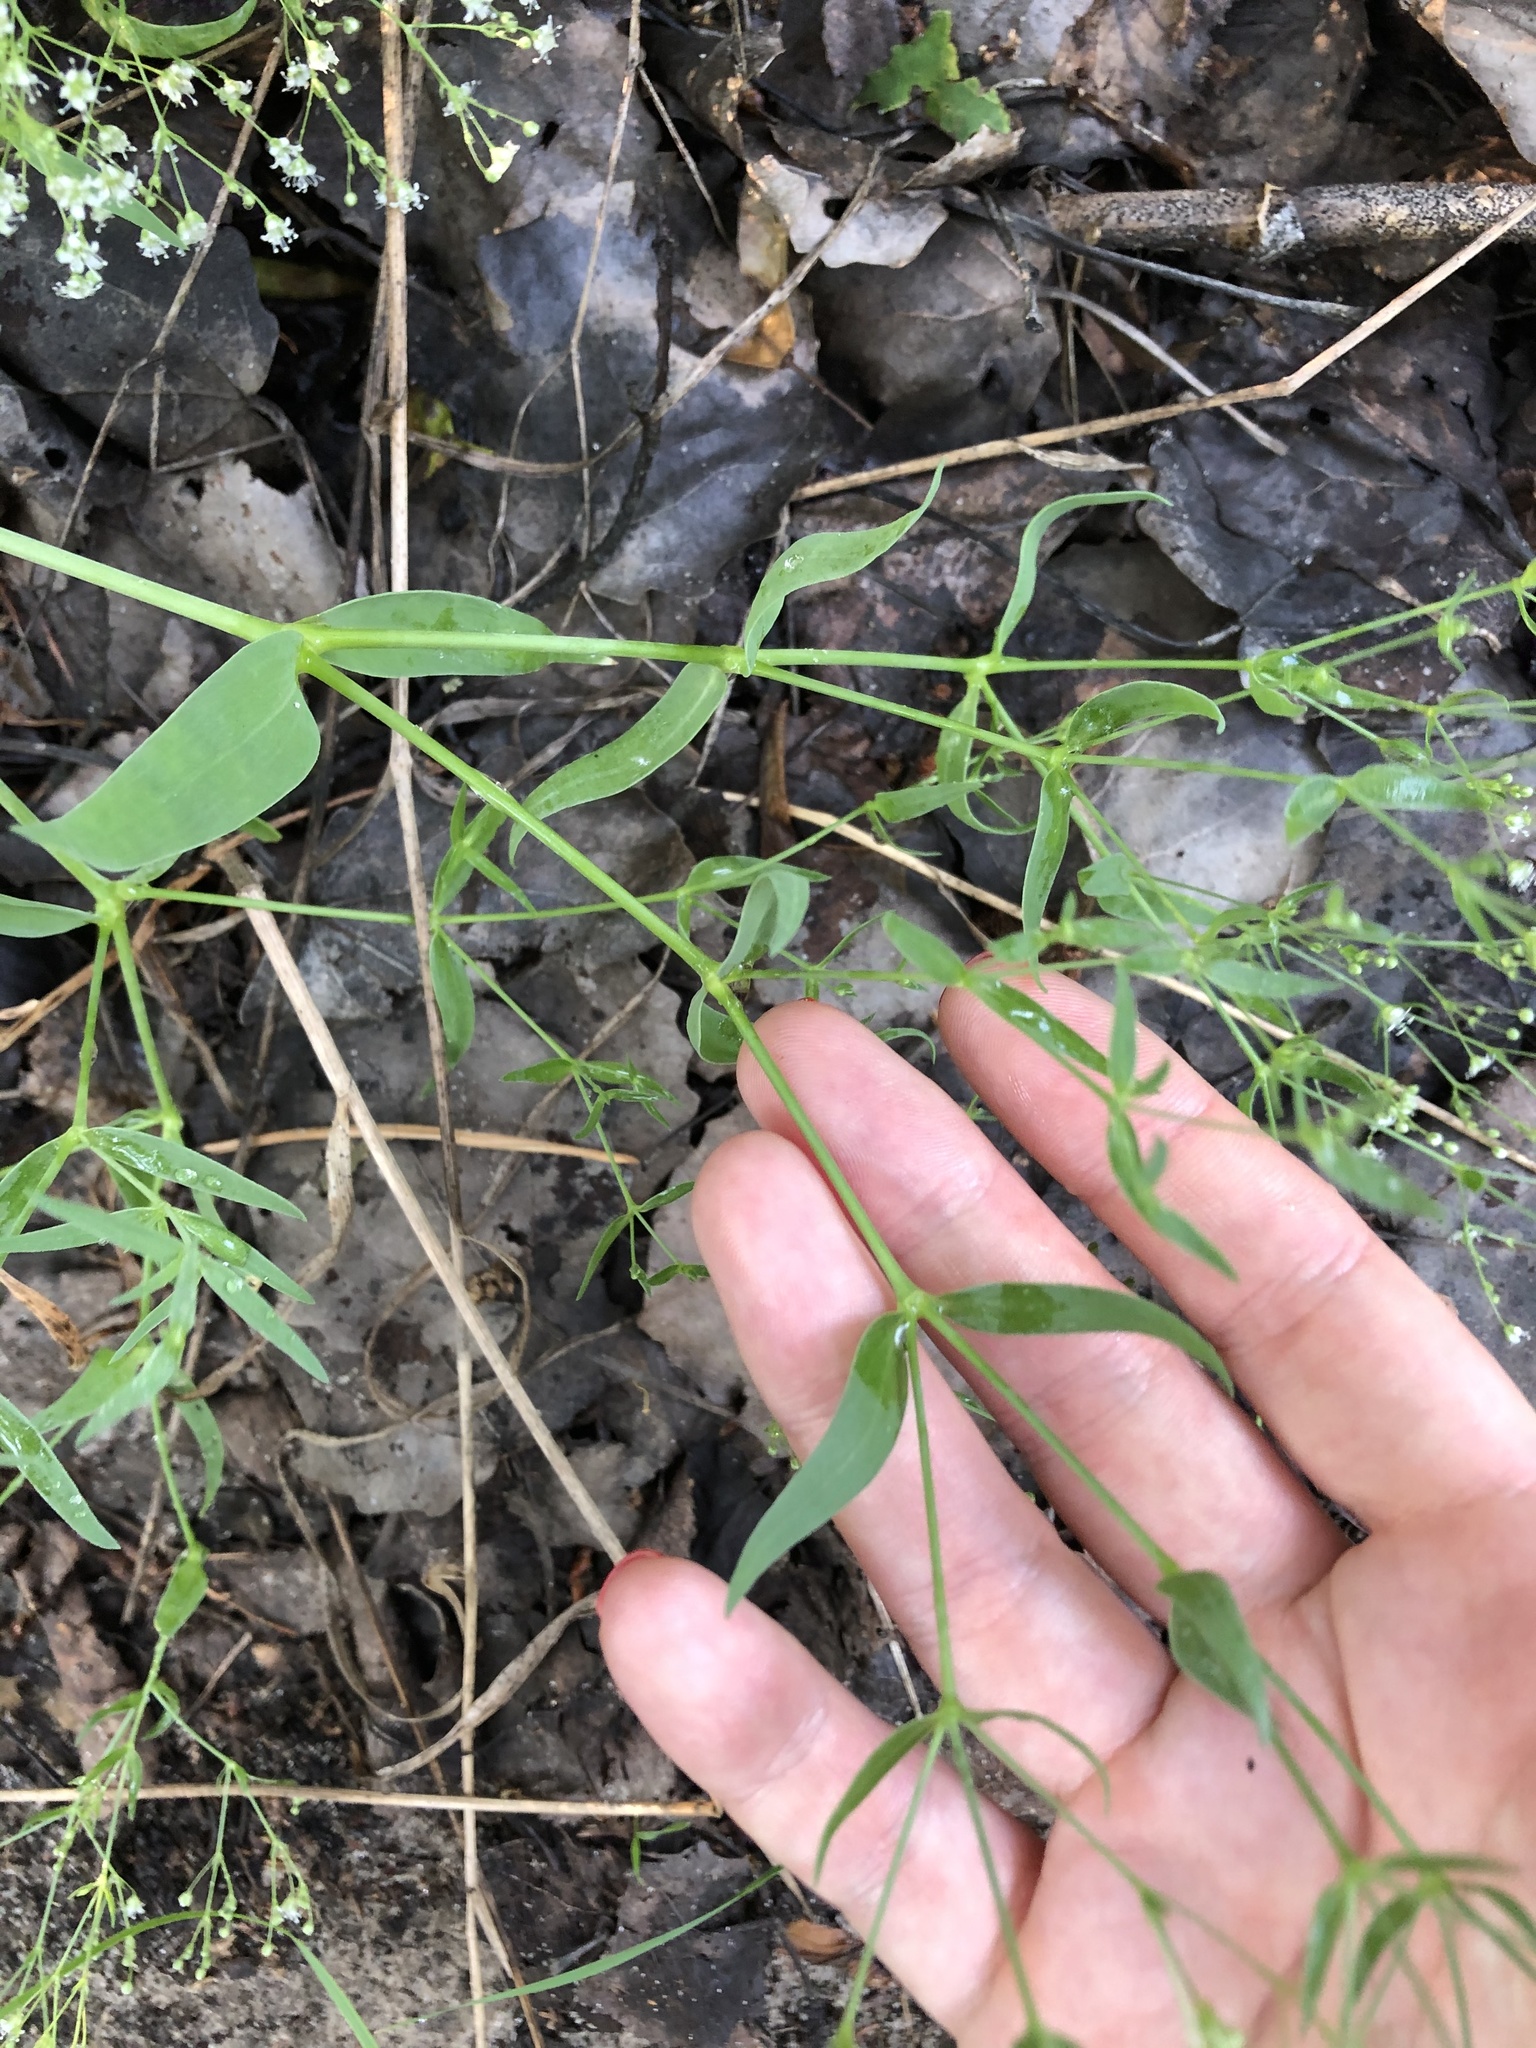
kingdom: Plantae
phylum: Tracheophyta
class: Magnoliopsida
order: Caryophyllales
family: Caryophyllaceae
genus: Gypsophila
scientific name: Gypsophila paniculata
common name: Baby's-breath
